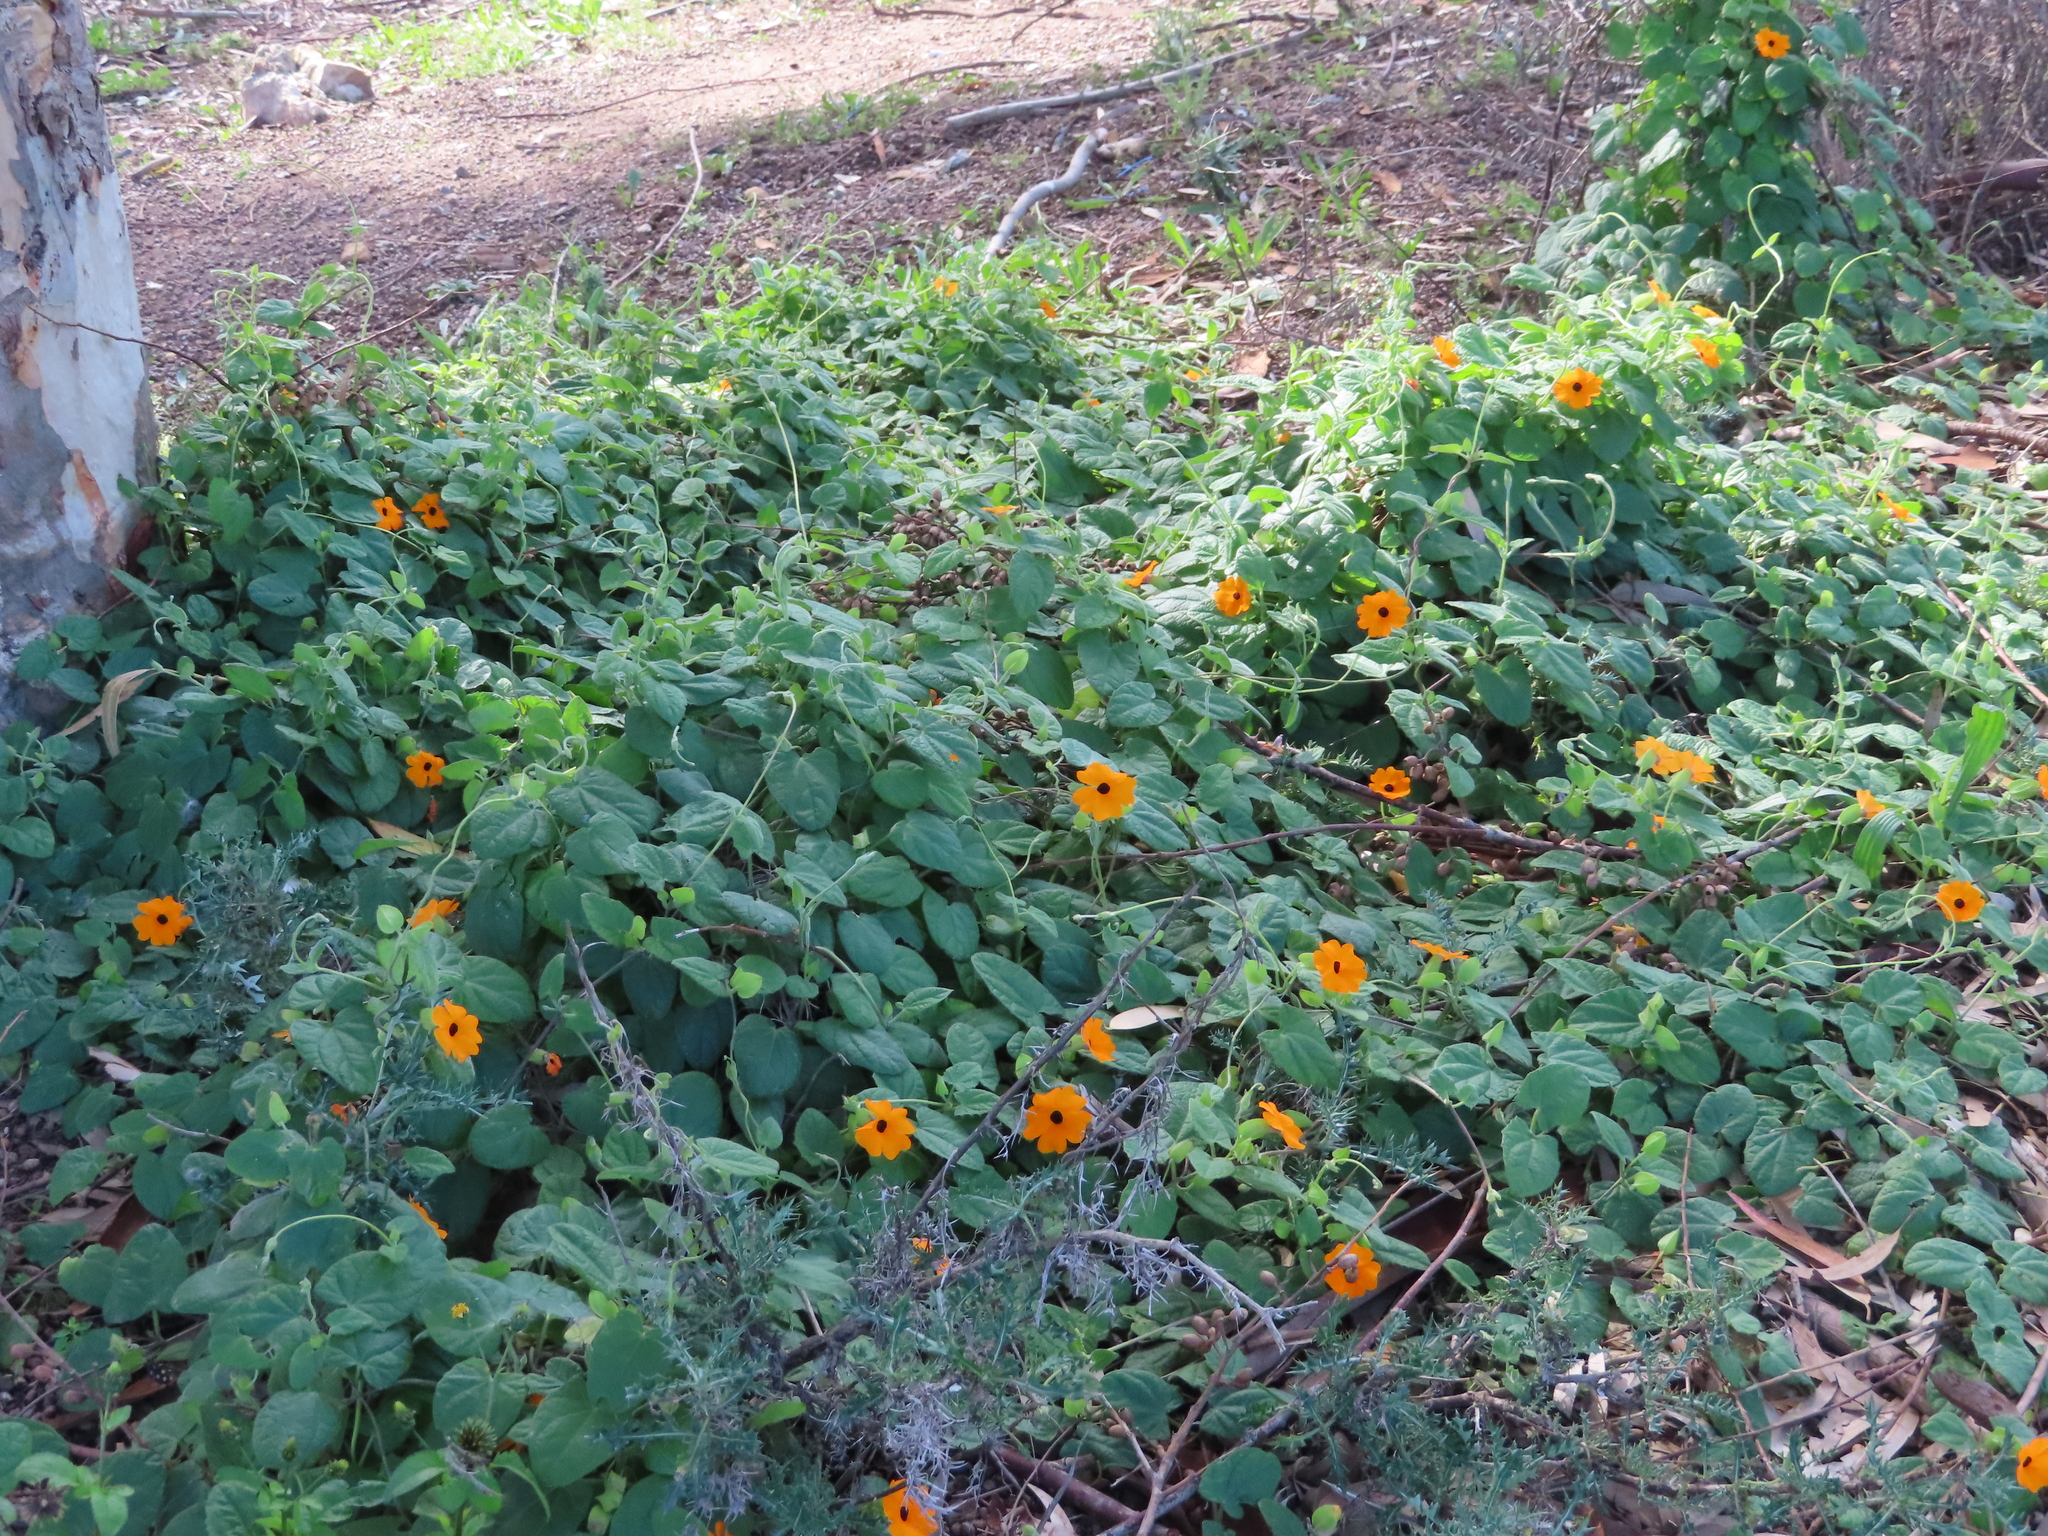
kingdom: Plantae
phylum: Tracheophyta
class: Magnoliopsida
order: Lamiales
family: Acanthaceae
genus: Thunbergia
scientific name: Thunbergia alata
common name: Blackeyed susan vine
